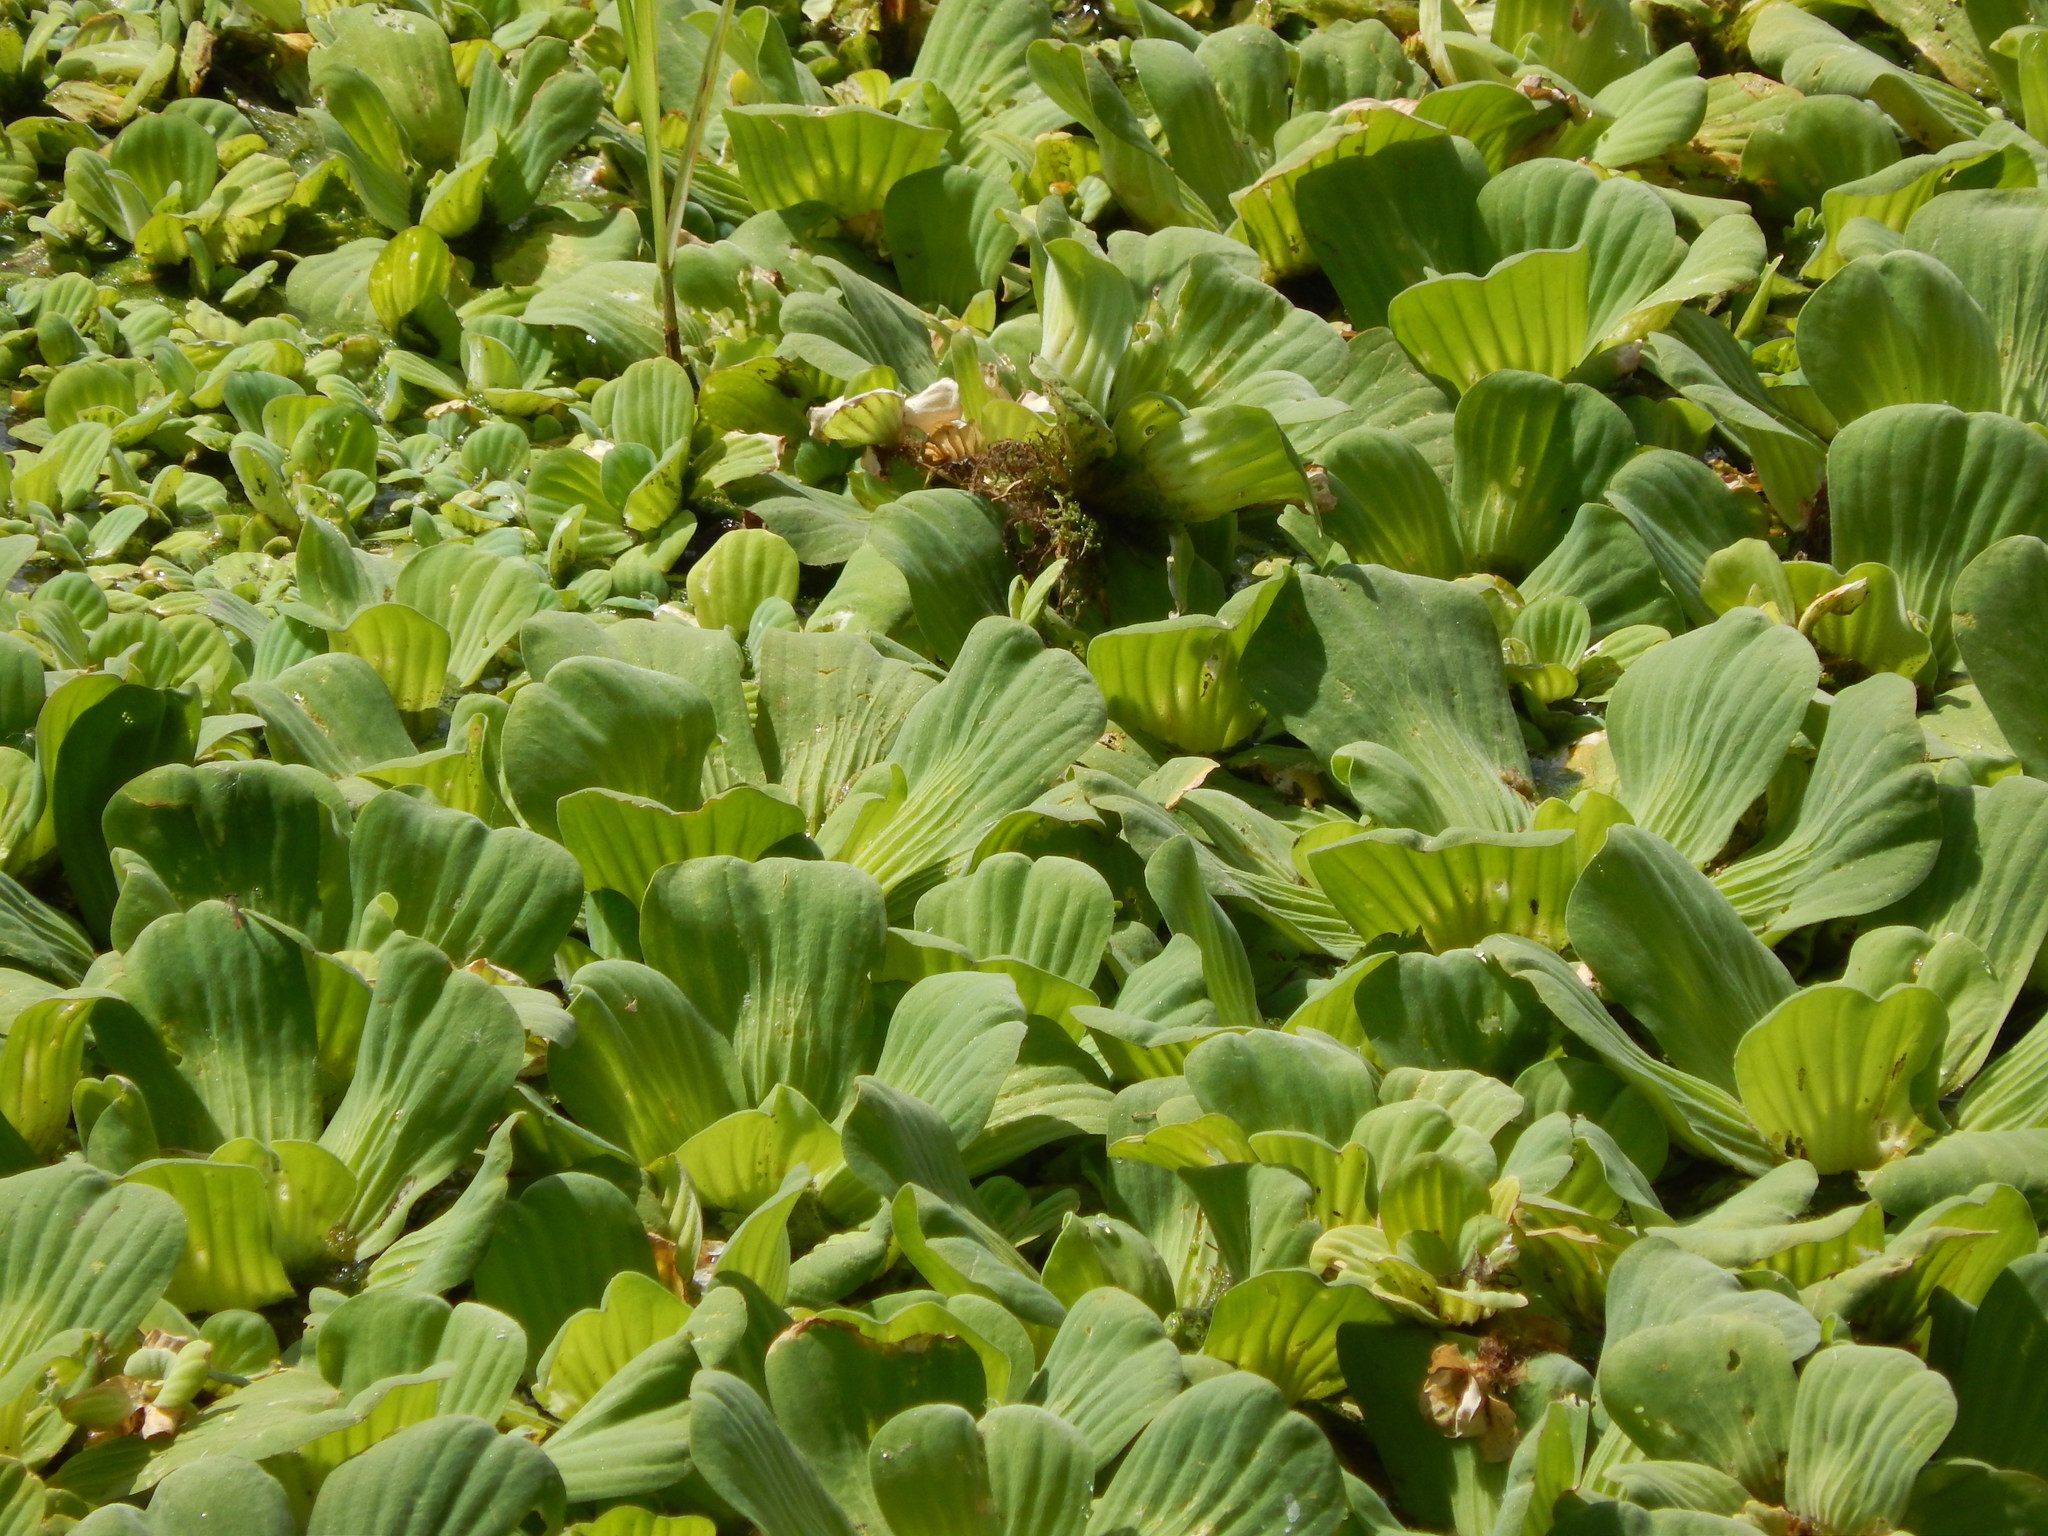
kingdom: Plantae
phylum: Tracheophyta
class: Liliopsida
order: Alismatales
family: Araceae
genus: Pistia
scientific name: Pistia stratiotes
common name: Water lettuce
